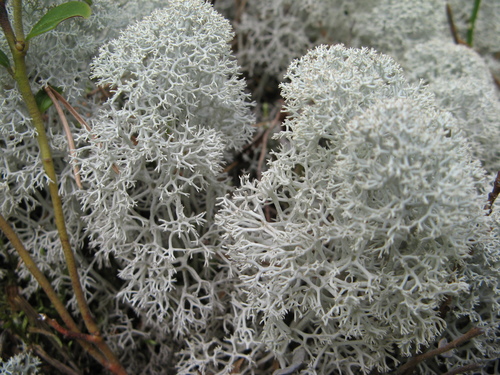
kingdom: Fungi
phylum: Ascomycota
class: Lecanoromycetes
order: Lecanorales
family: Cladoniaceae
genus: Cladonia
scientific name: Cladonia stellaris
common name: Star-tipped reindeer lichen
